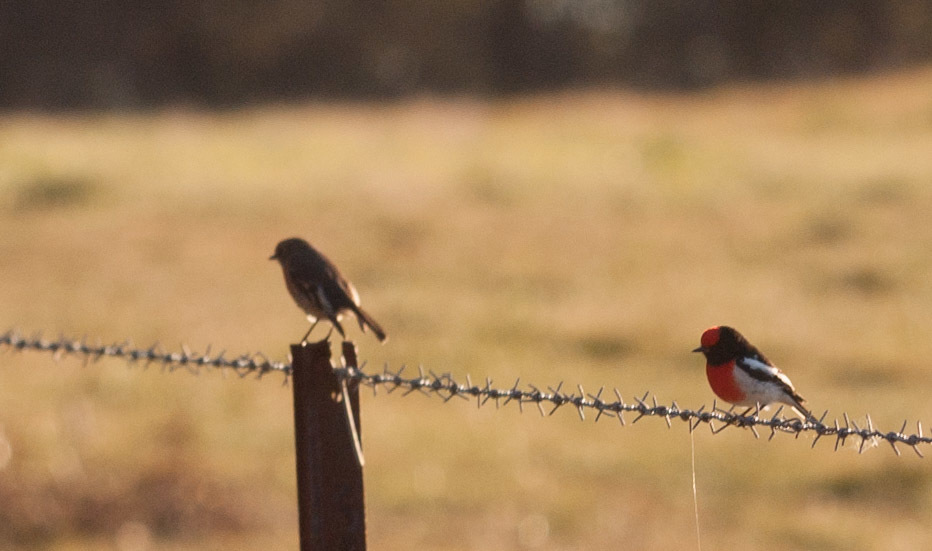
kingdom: Animalia
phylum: Chordata
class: Aves
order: Passeriformes
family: Petroicidae
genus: Petroica
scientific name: Petroica goodenovii
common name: Red-capped robin
